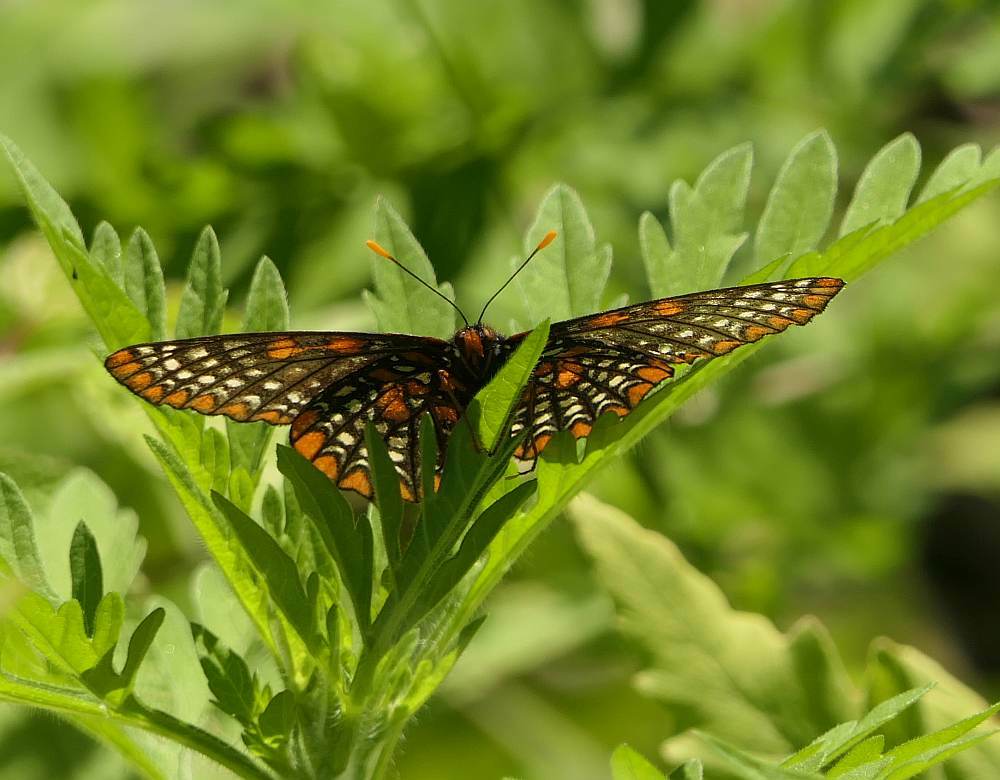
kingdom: Animalia
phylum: Arthropoda
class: Insecta
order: Lepidoptera
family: Nymphalidae
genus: Euphydryas
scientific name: Euphydryas phaeton
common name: Baltimore checkerspot
